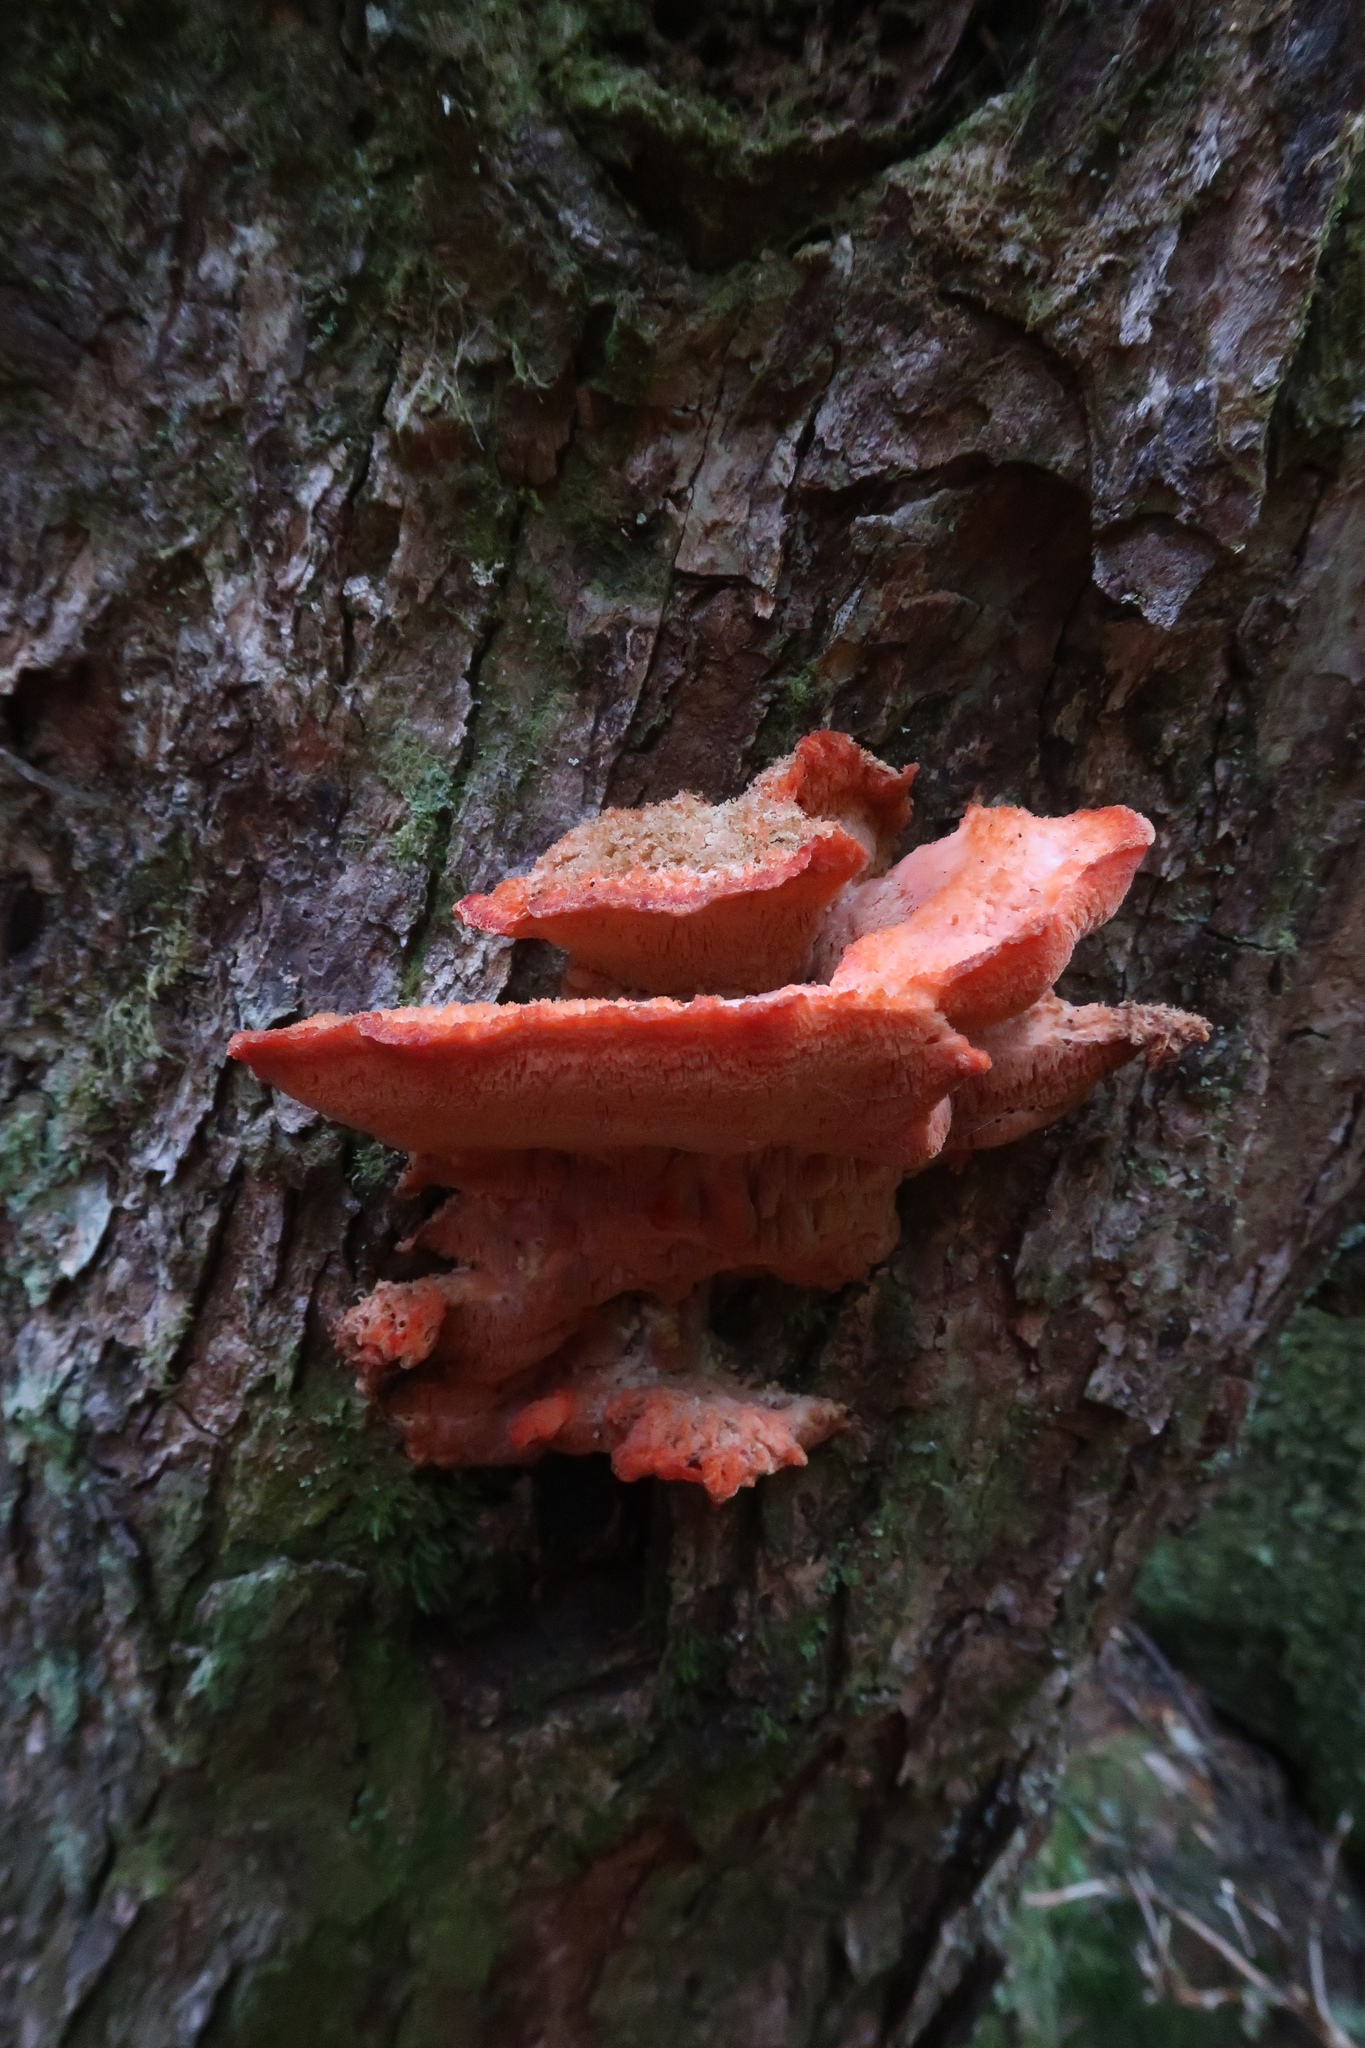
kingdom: Fungi
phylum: Basidiomycota
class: Agaricomycetes
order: Polyporales
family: Incrustoporiaceae
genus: Tyromyces
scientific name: Tyromyces pulcherrimus
